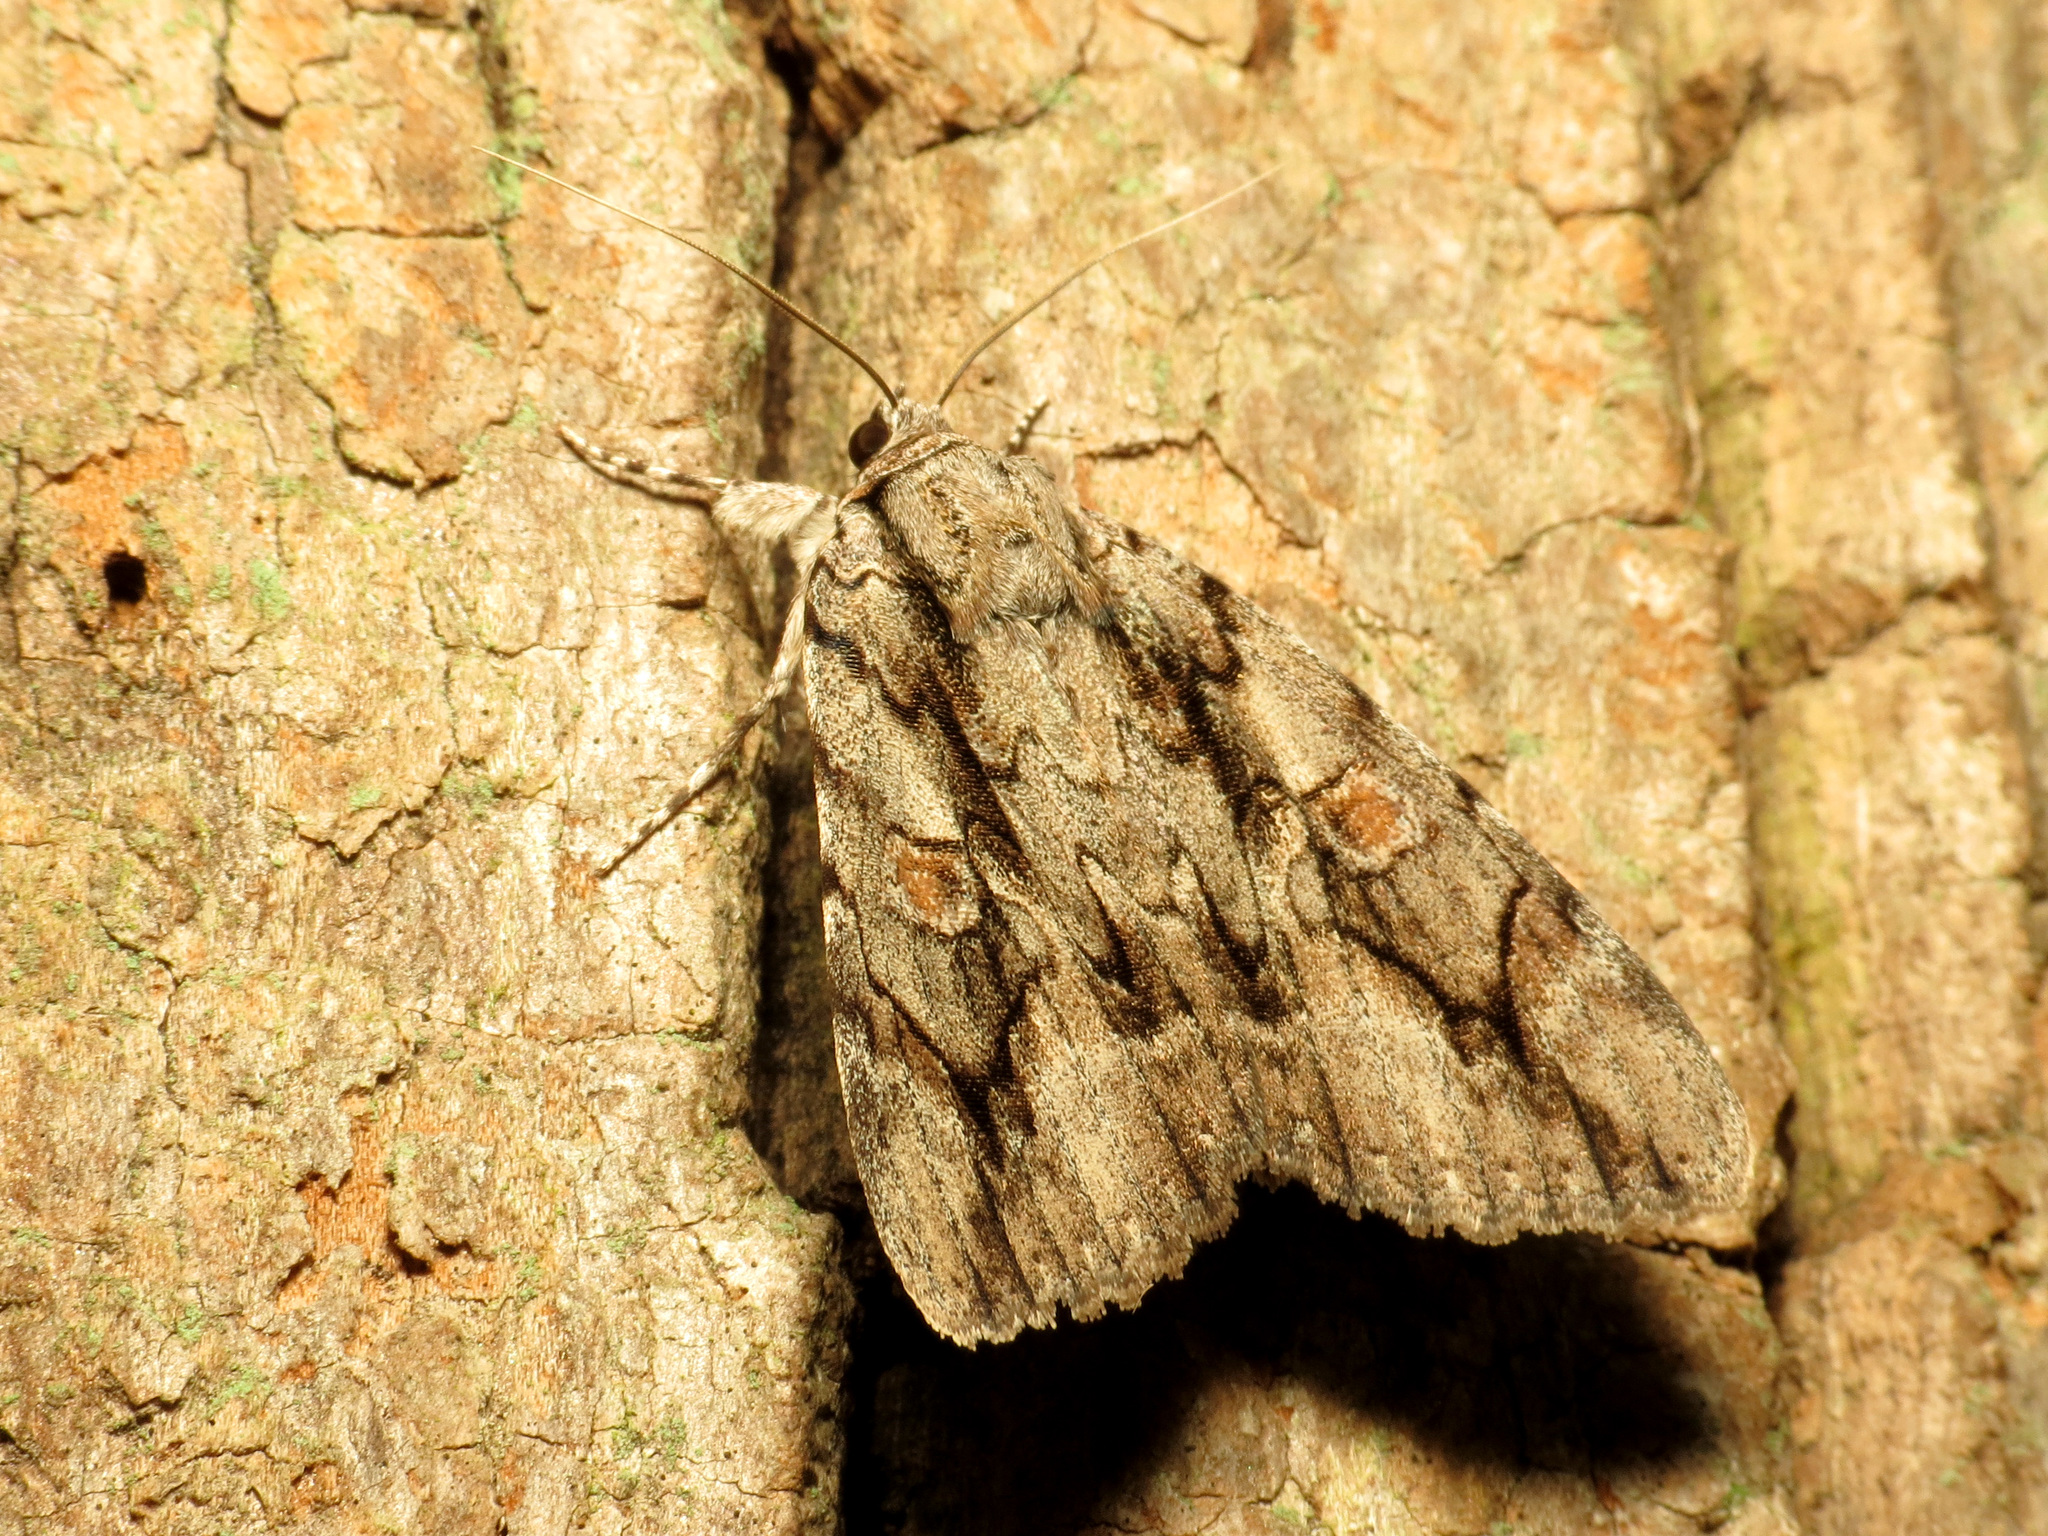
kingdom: Animalia
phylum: Arthropoda
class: Insecta
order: Lepidoptera
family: Erebidae
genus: Catocala
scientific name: Catocala flebilis
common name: Mournful underwing
